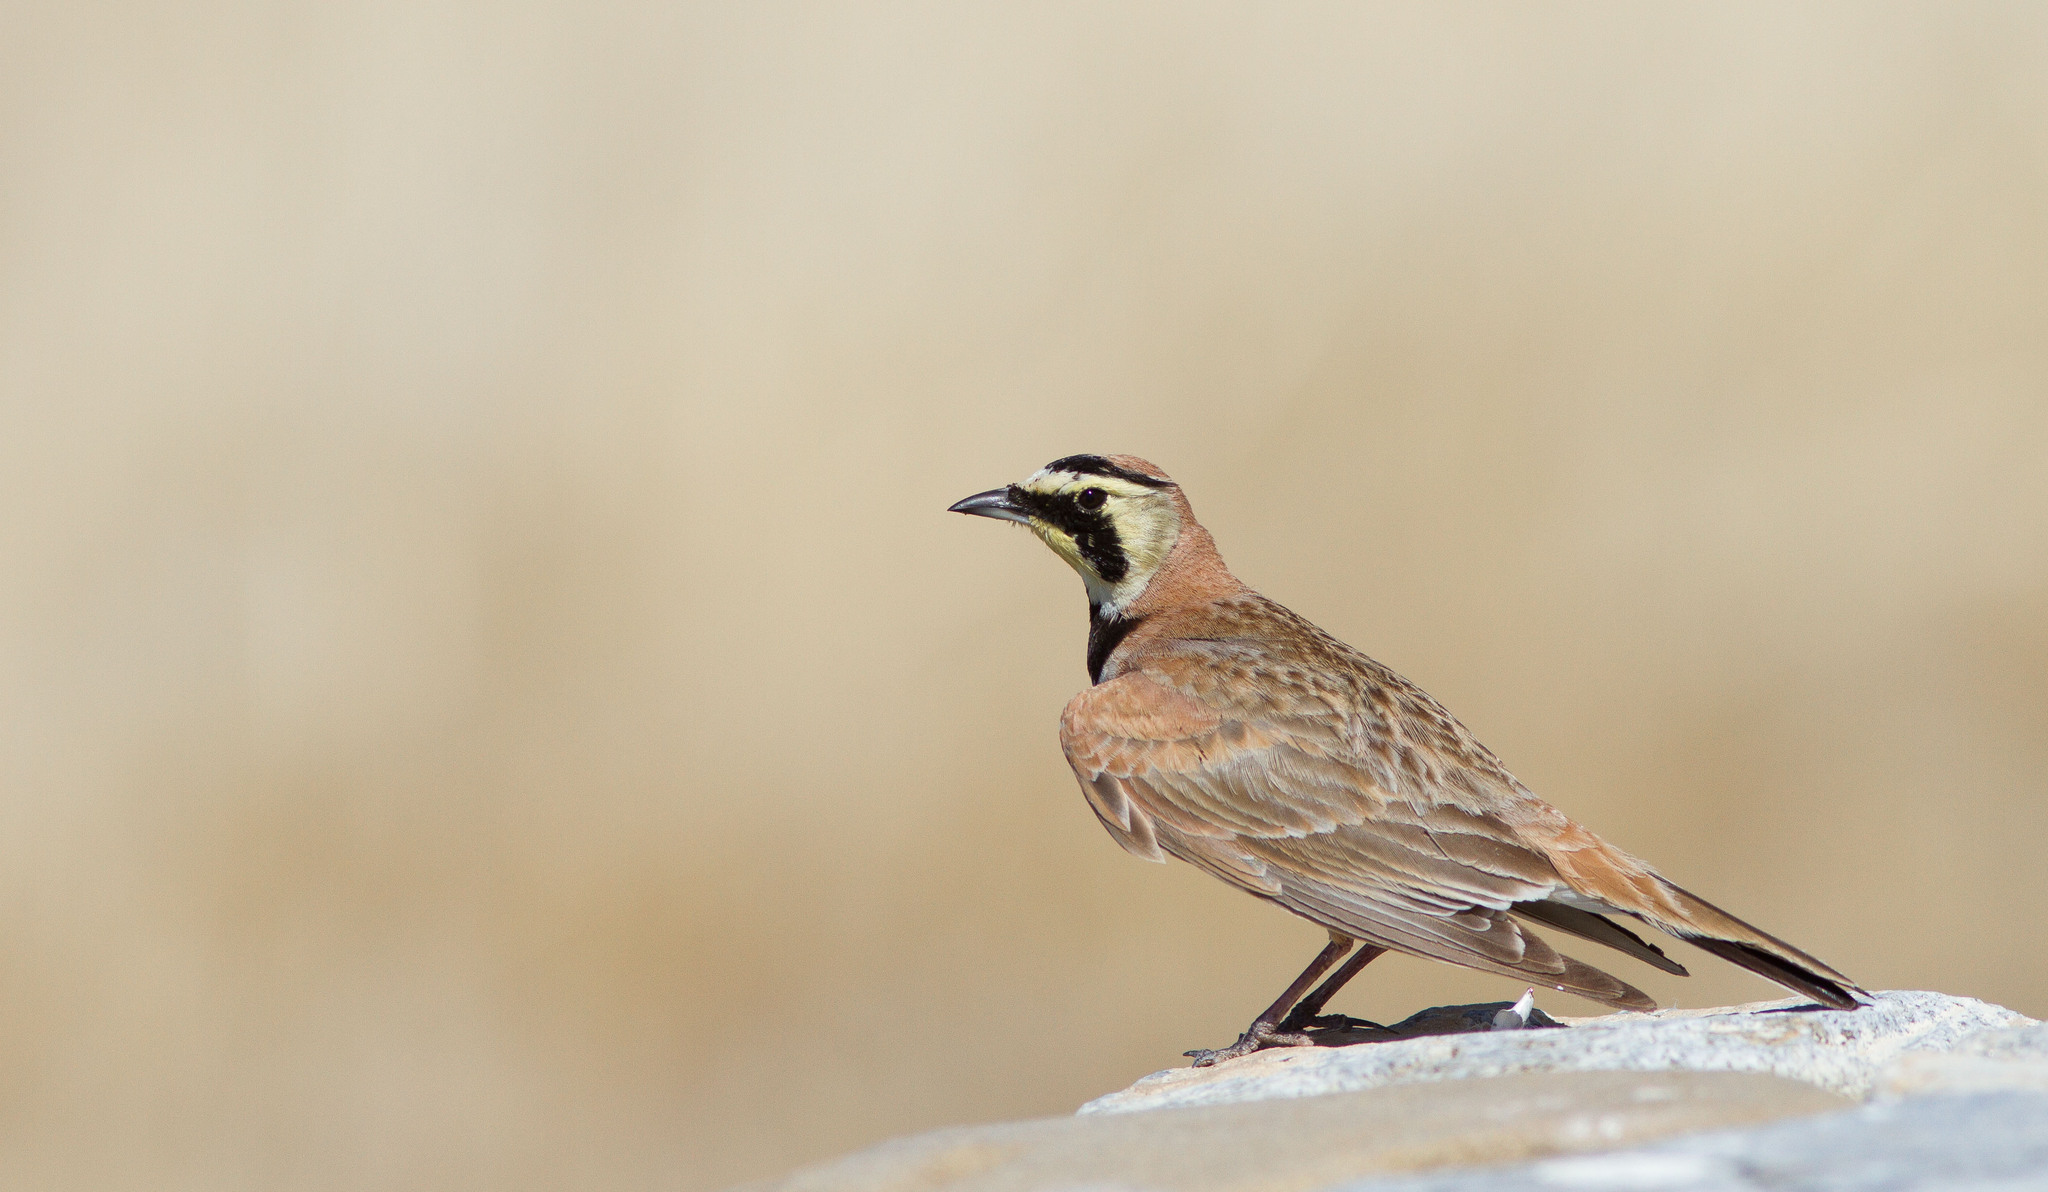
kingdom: Animalia
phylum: Chordata
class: Aves
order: Passeriformes
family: Alaudidae
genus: Eremophila
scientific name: Eremophila alpestris
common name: Horned lark
